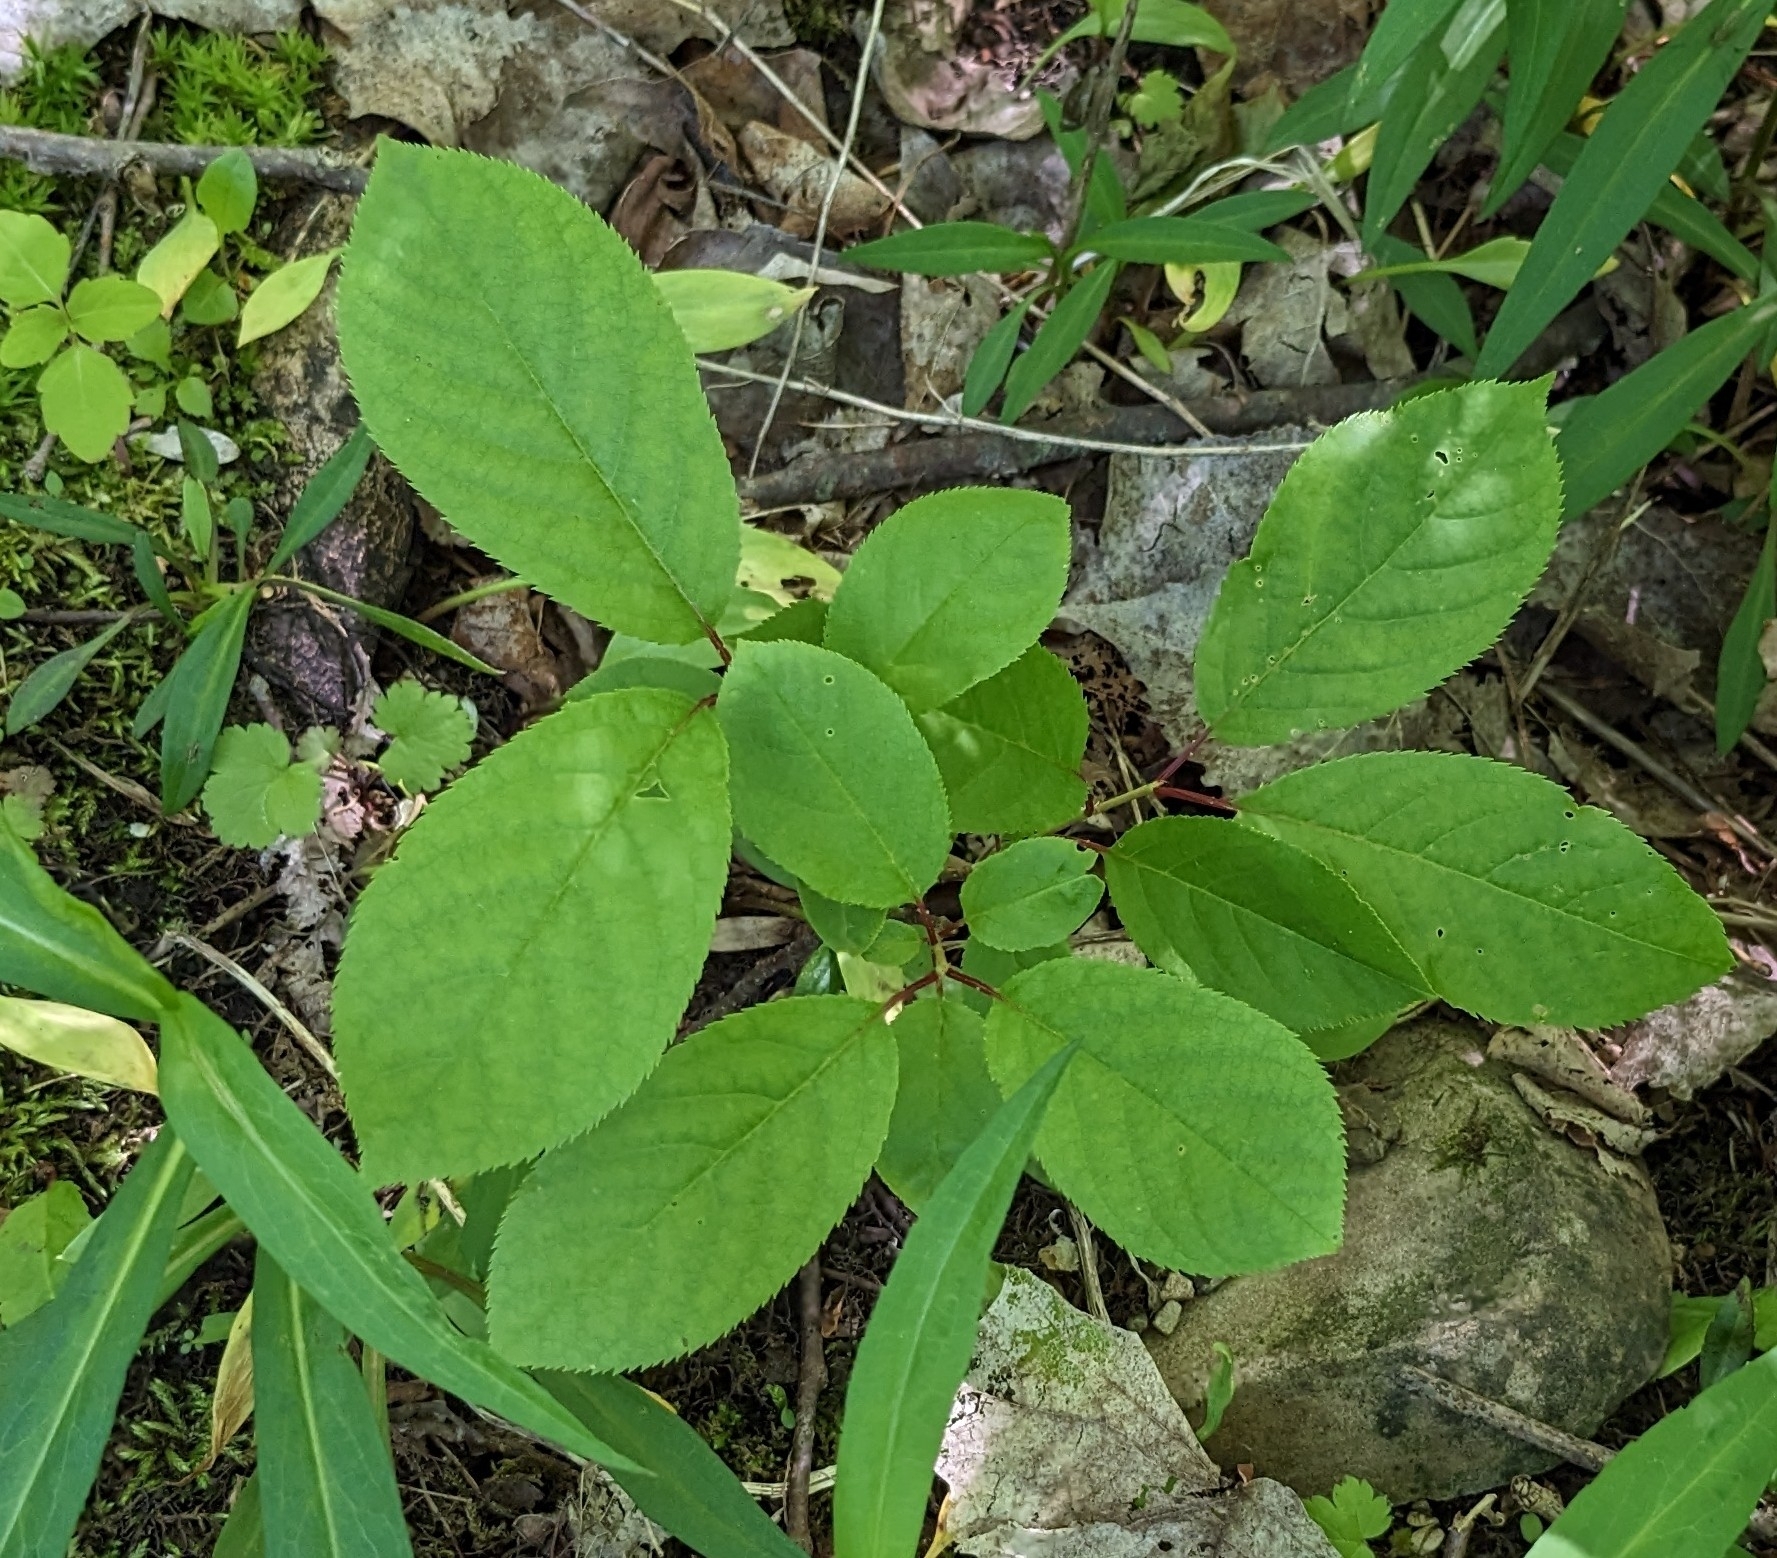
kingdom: Plantae
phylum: Tracheophyta
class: Magnoliopsida
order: Rosales
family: Rosaceae
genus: Prunus
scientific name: Prunus virginiana
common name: Chokecherry
